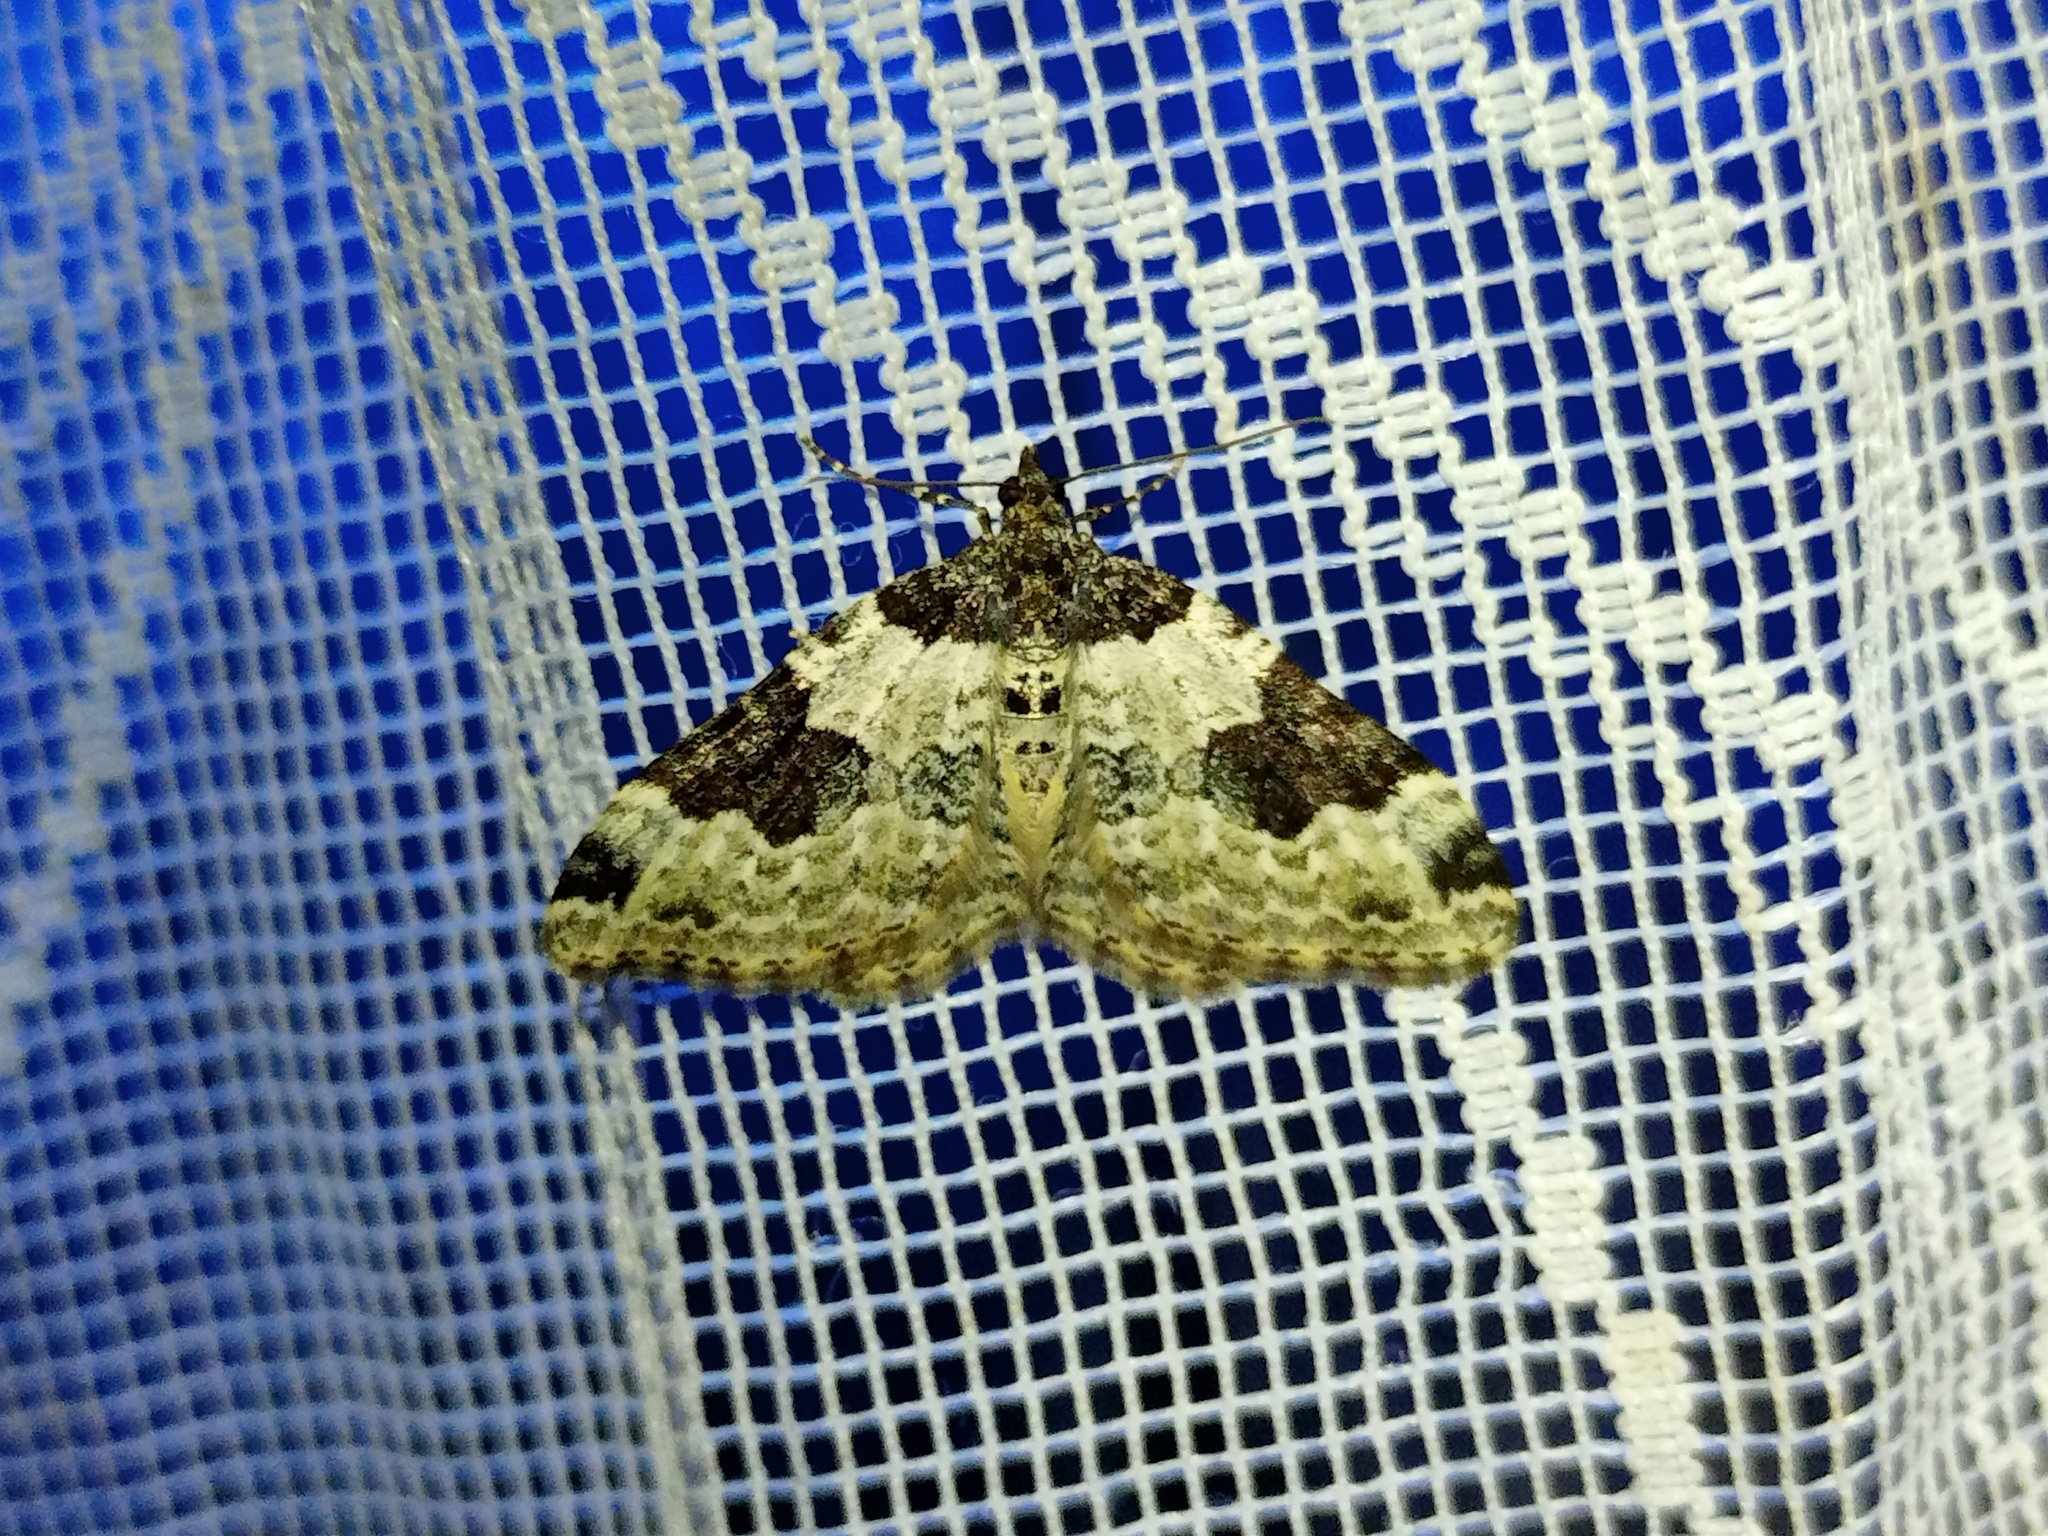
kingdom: Animalia
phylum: Arthropoda
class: Insecta
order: Lepidoptera
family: Geometridae
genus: Xanthorhoe
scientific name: Xanthorhoe fluctuata
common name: Garden carpet
